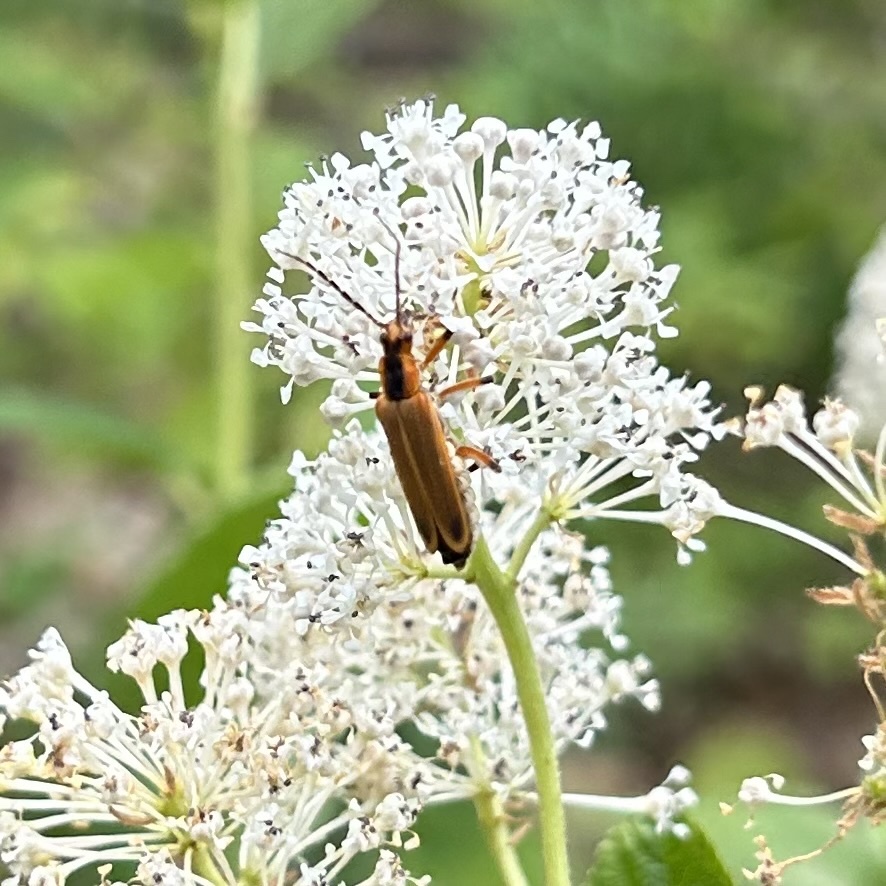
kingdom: Animalia
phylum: Arthropoda
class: Insecta
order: Coleoptera
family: Cantharidae
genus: Chauliognathus
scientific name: Chauliognathus marginatus
